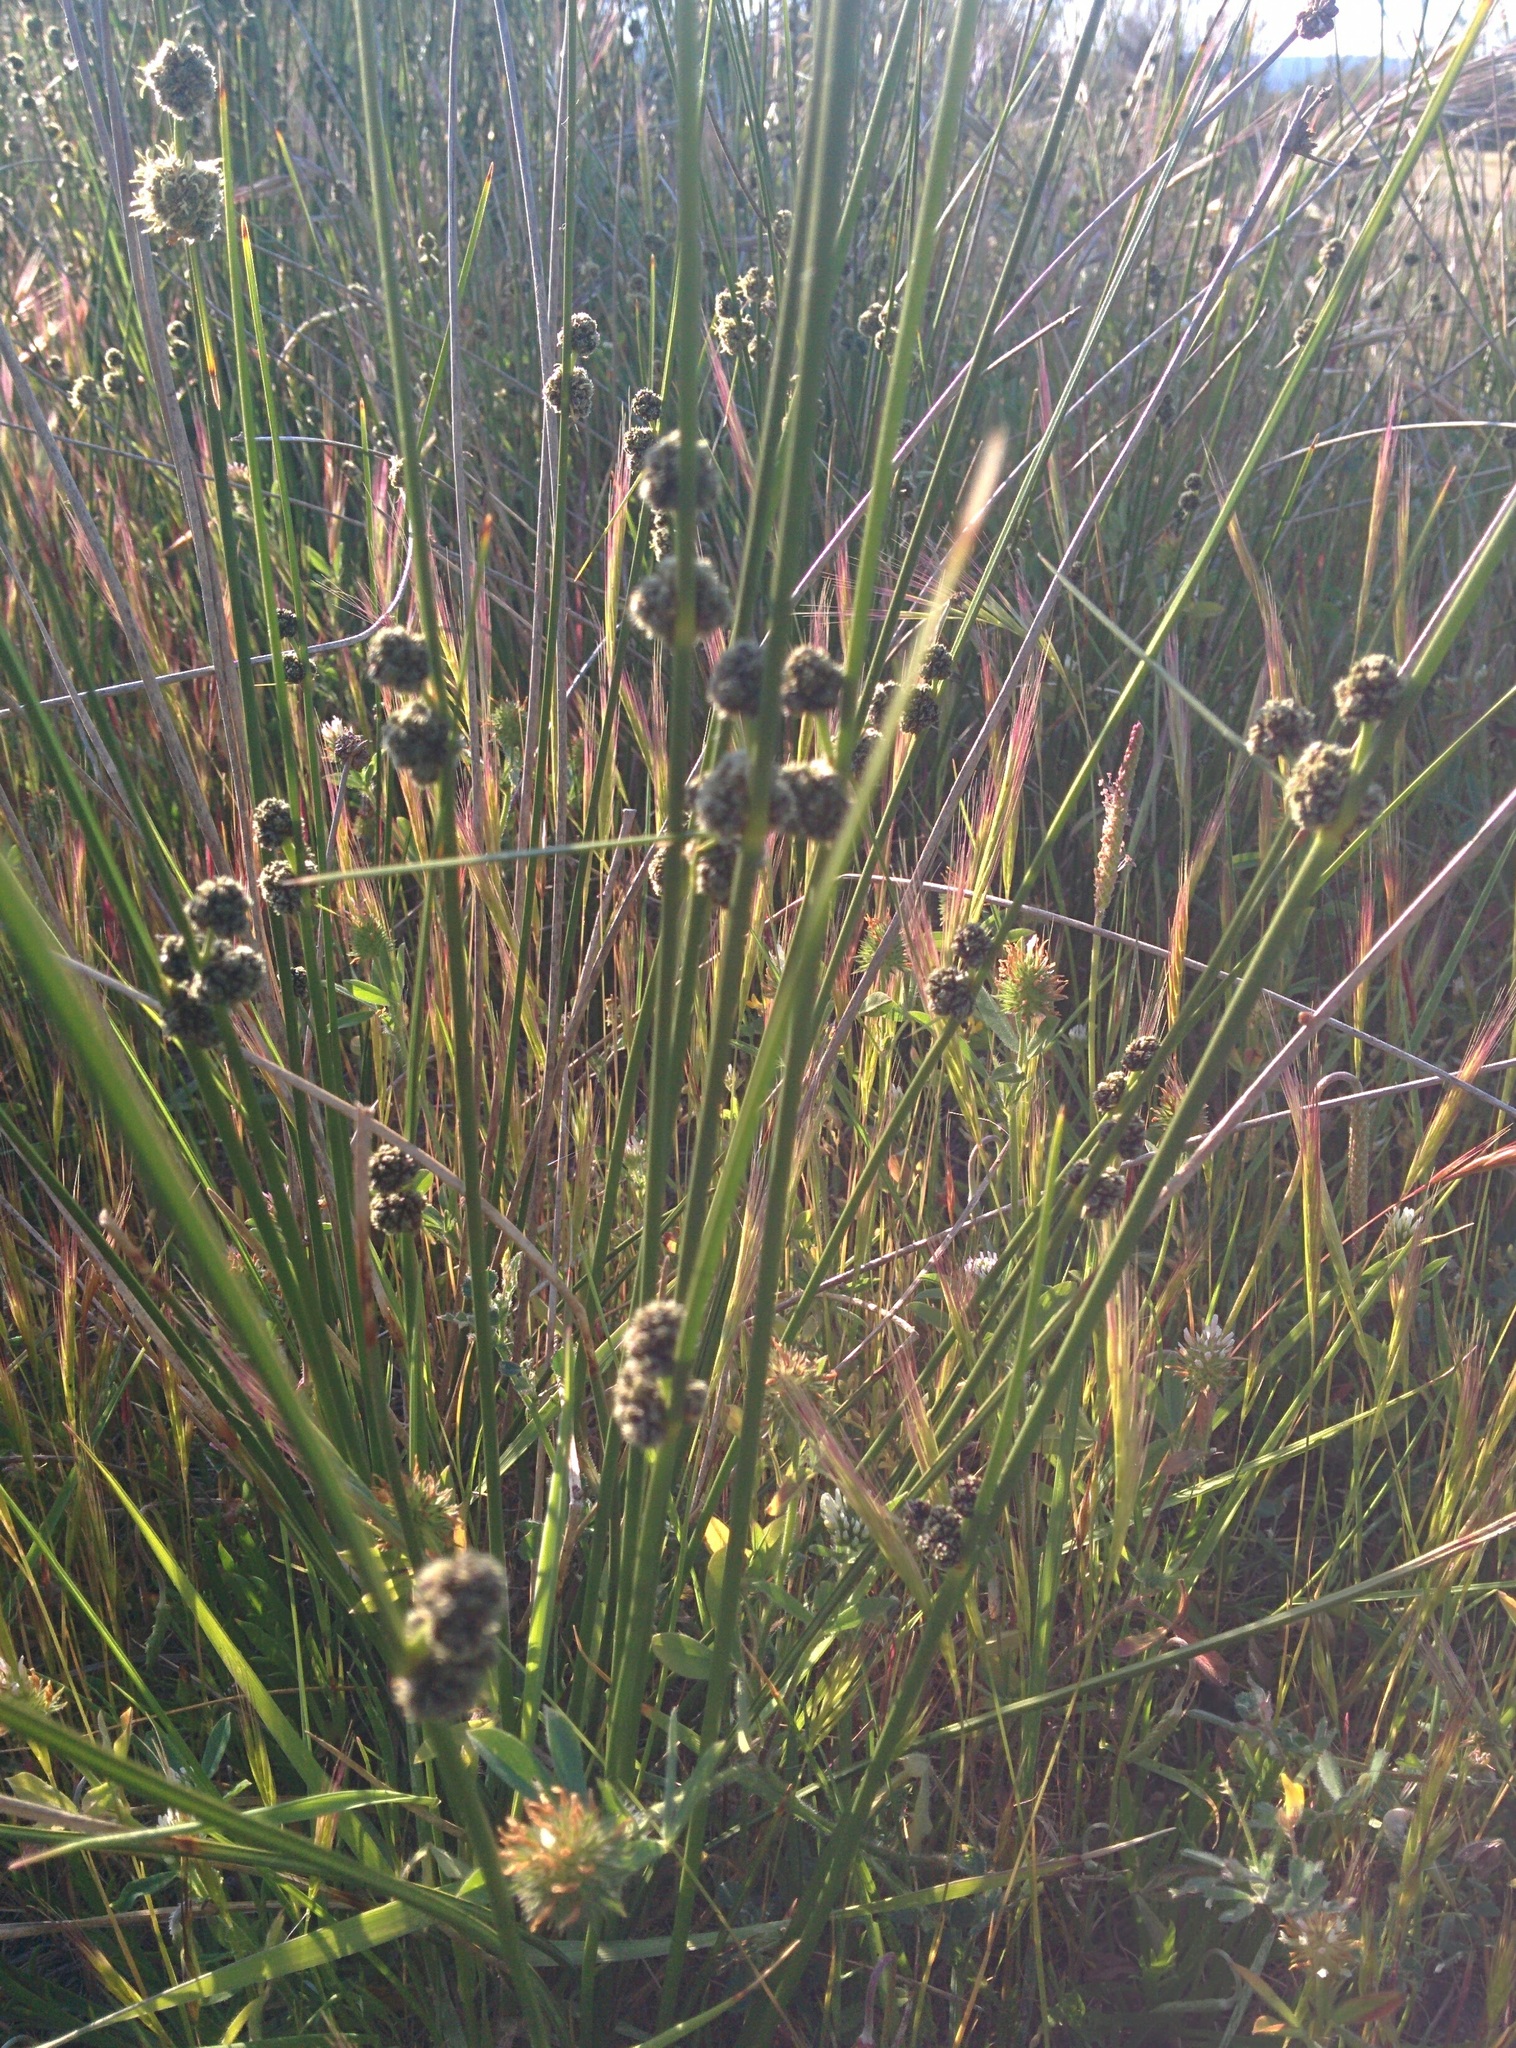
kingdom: Plantae
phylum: Tracheophyta
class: Liliopsida
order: Poales
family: Cyperaceae
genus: Scirpoides
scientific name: Scirpoides holoschoenus
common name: Round-headed club-rush
